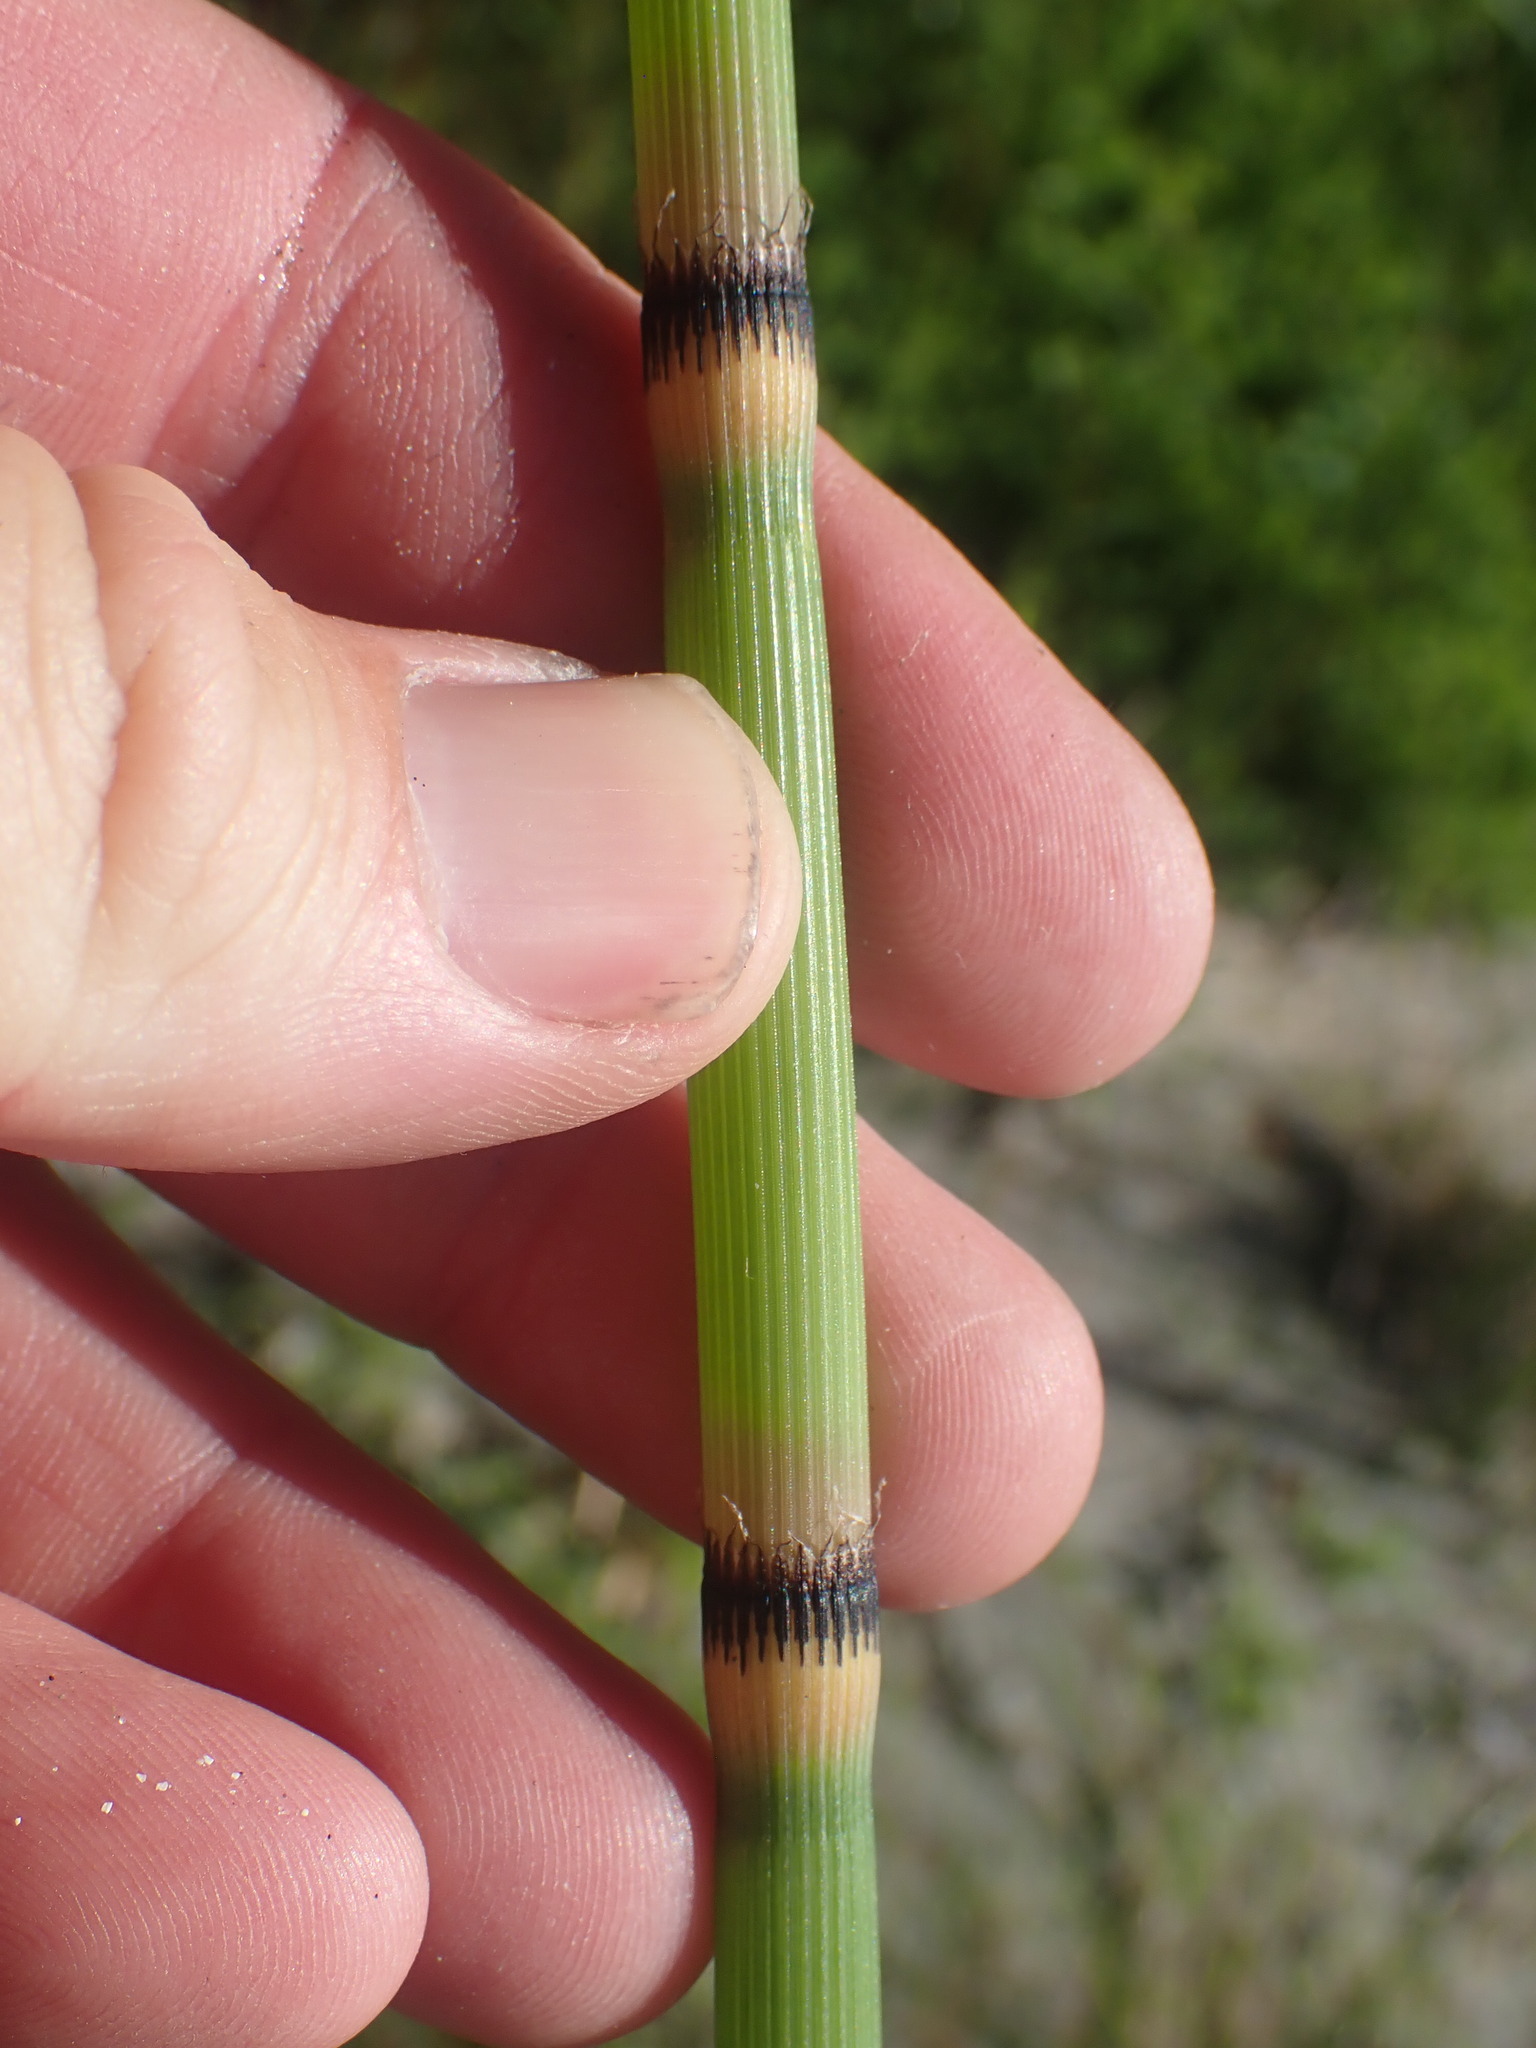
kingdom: Plantae
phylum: Tracheophyta
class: Polypodiopsida
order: Equisetales
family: Equisetaceae
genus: Equisetum
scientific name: Equisetum praealtum
